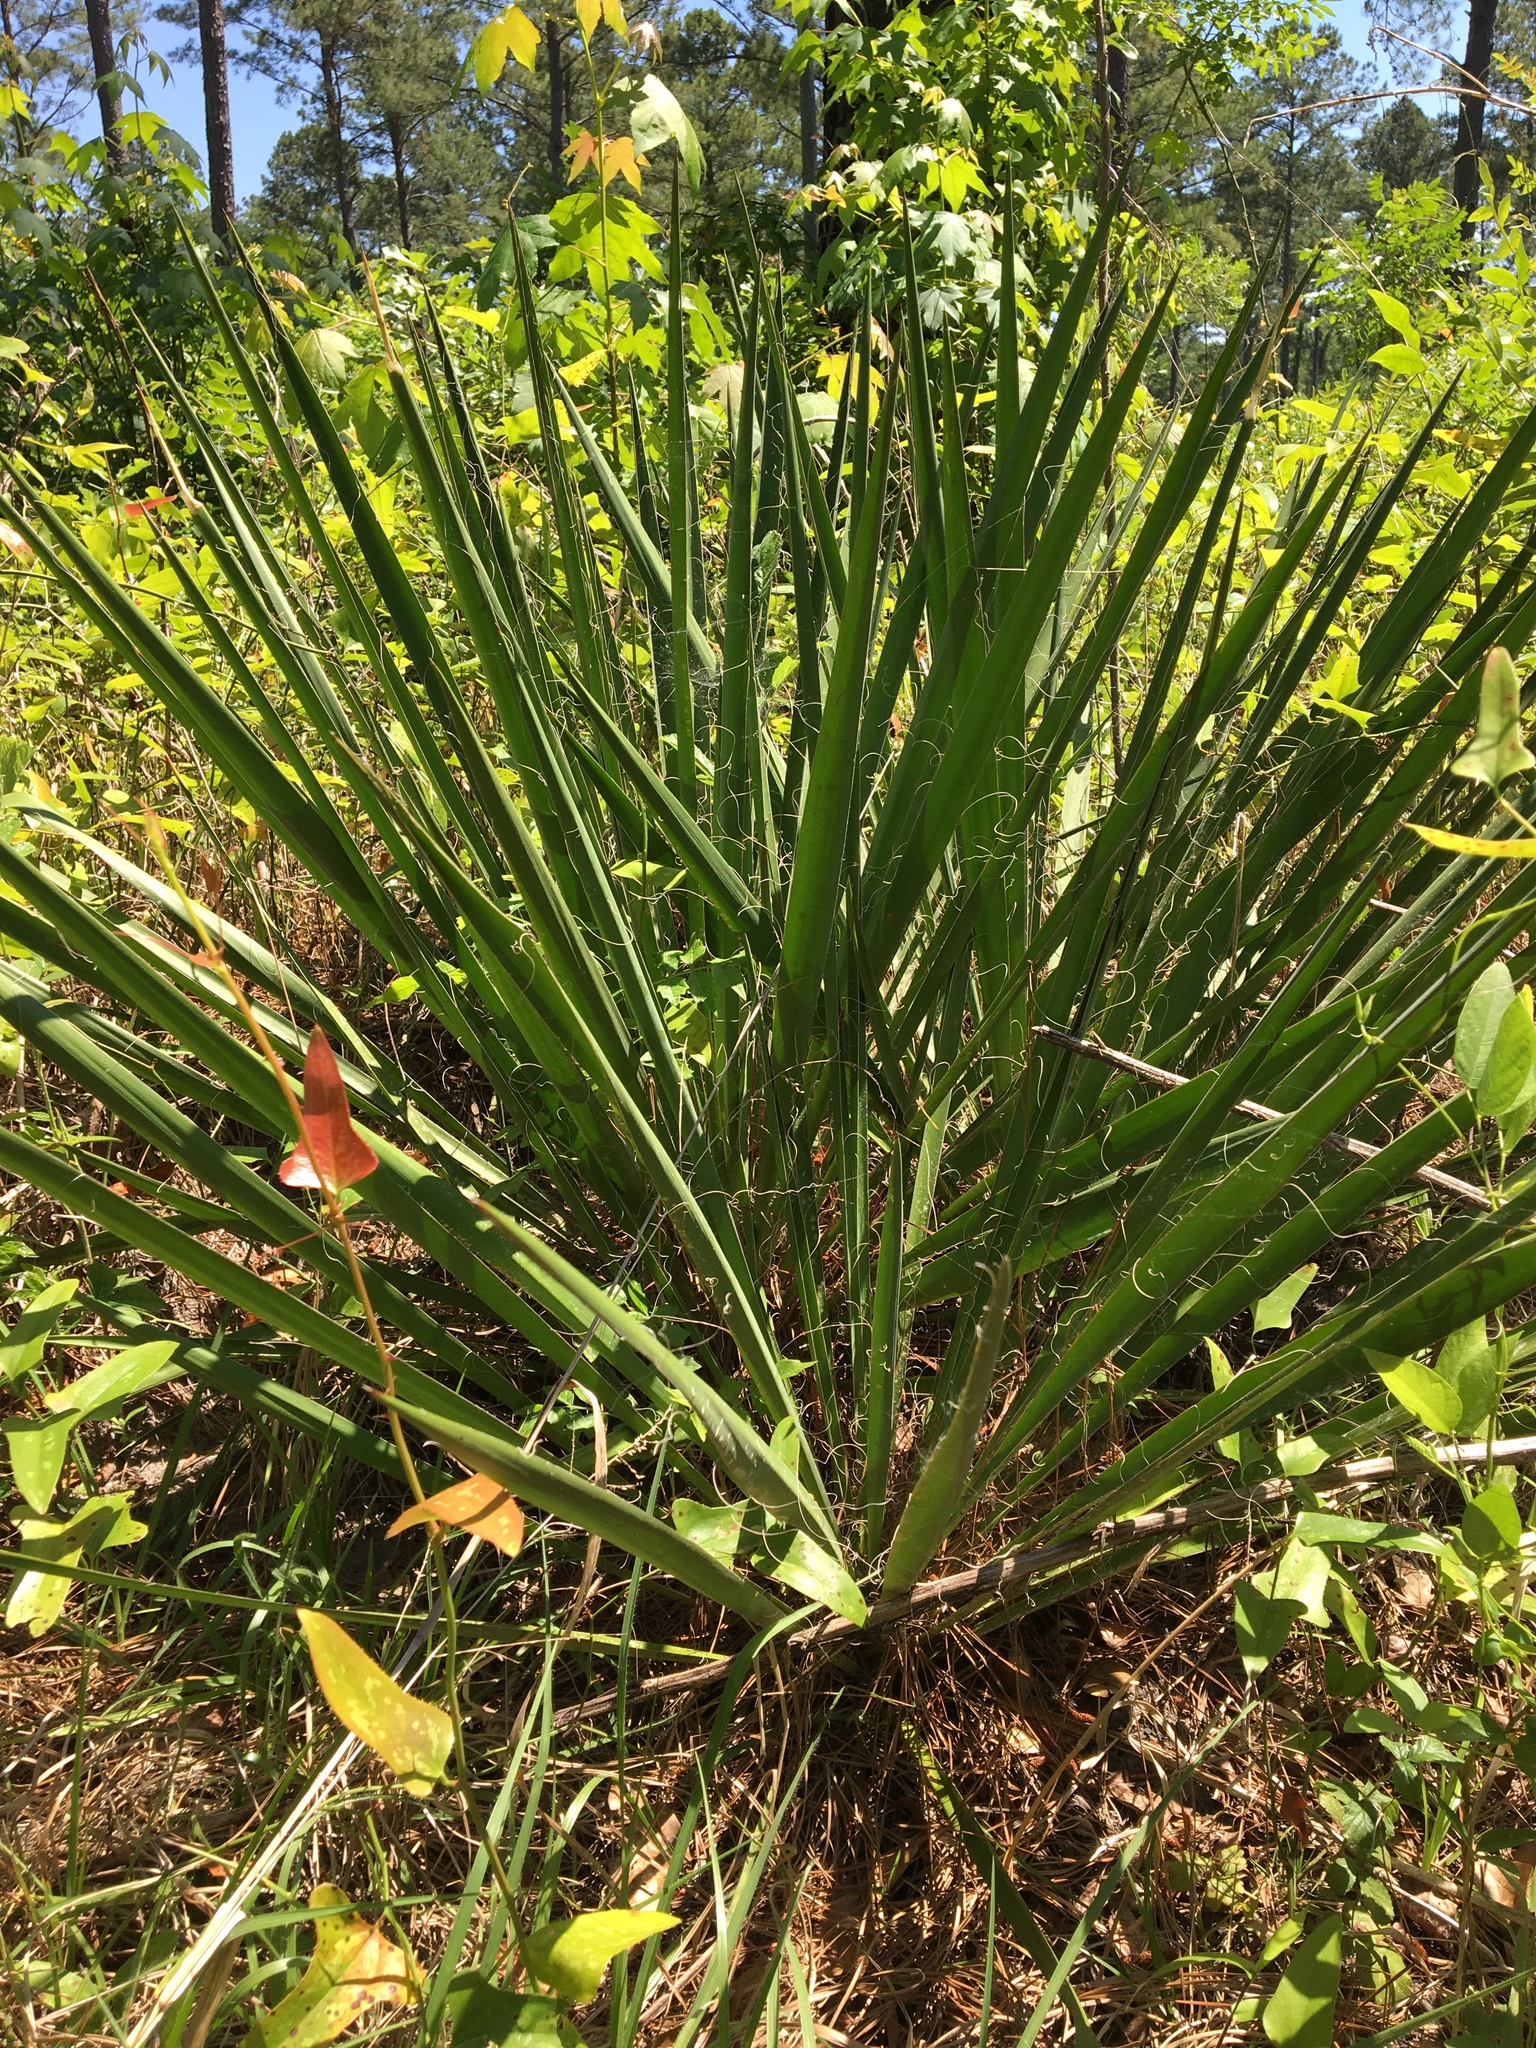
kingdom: Plantae
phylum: Tracheophyta
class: Liliopsida
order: Asparagales
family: Asparagaceae
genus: Yucca
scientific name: Yucca filamentosa
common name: Adam's-needle
